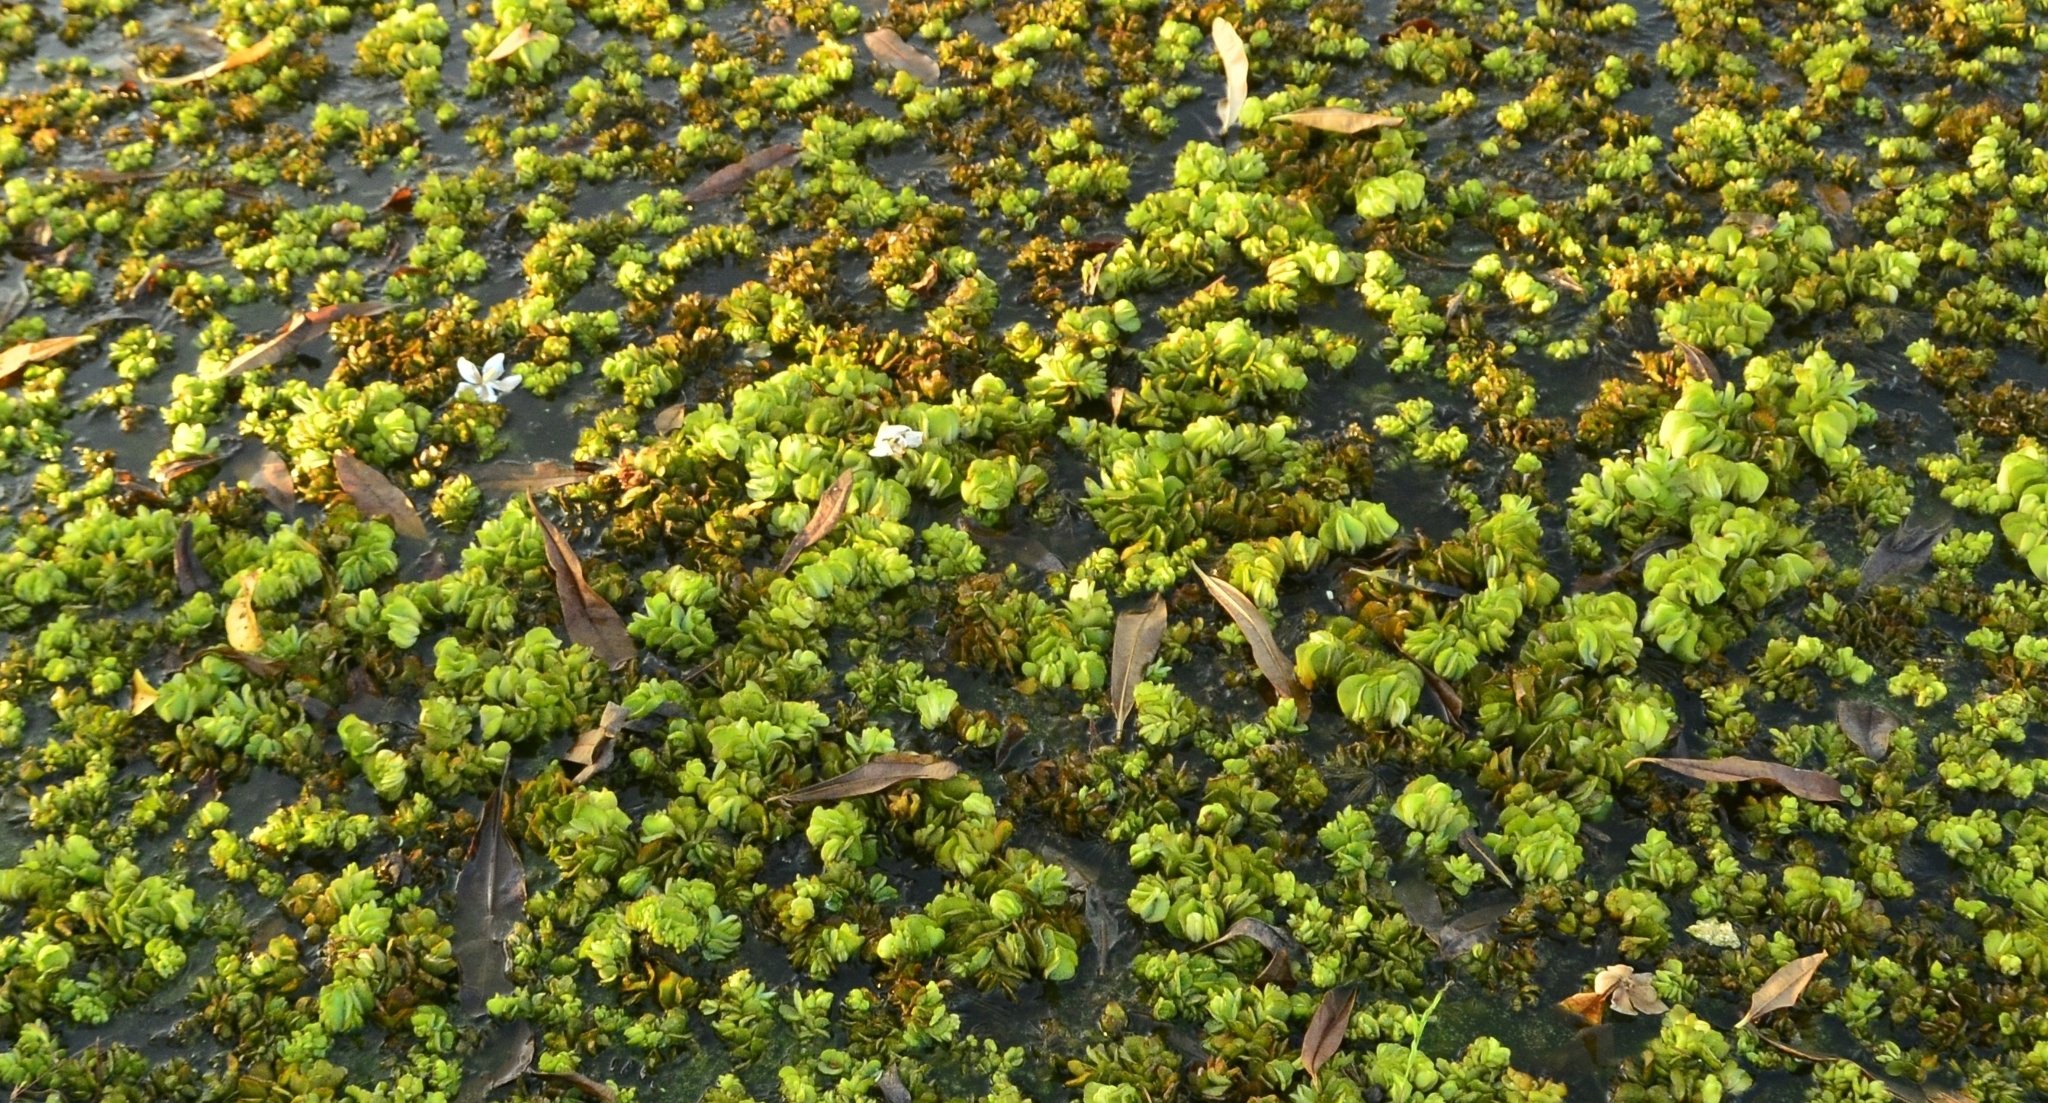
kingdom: Plantae
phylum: Tracheophyta
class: Polypodiopsida
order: Salviniales
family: Salviniaceae
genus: Salvinia
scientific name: Salvinia molesta
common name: Kariba weed
